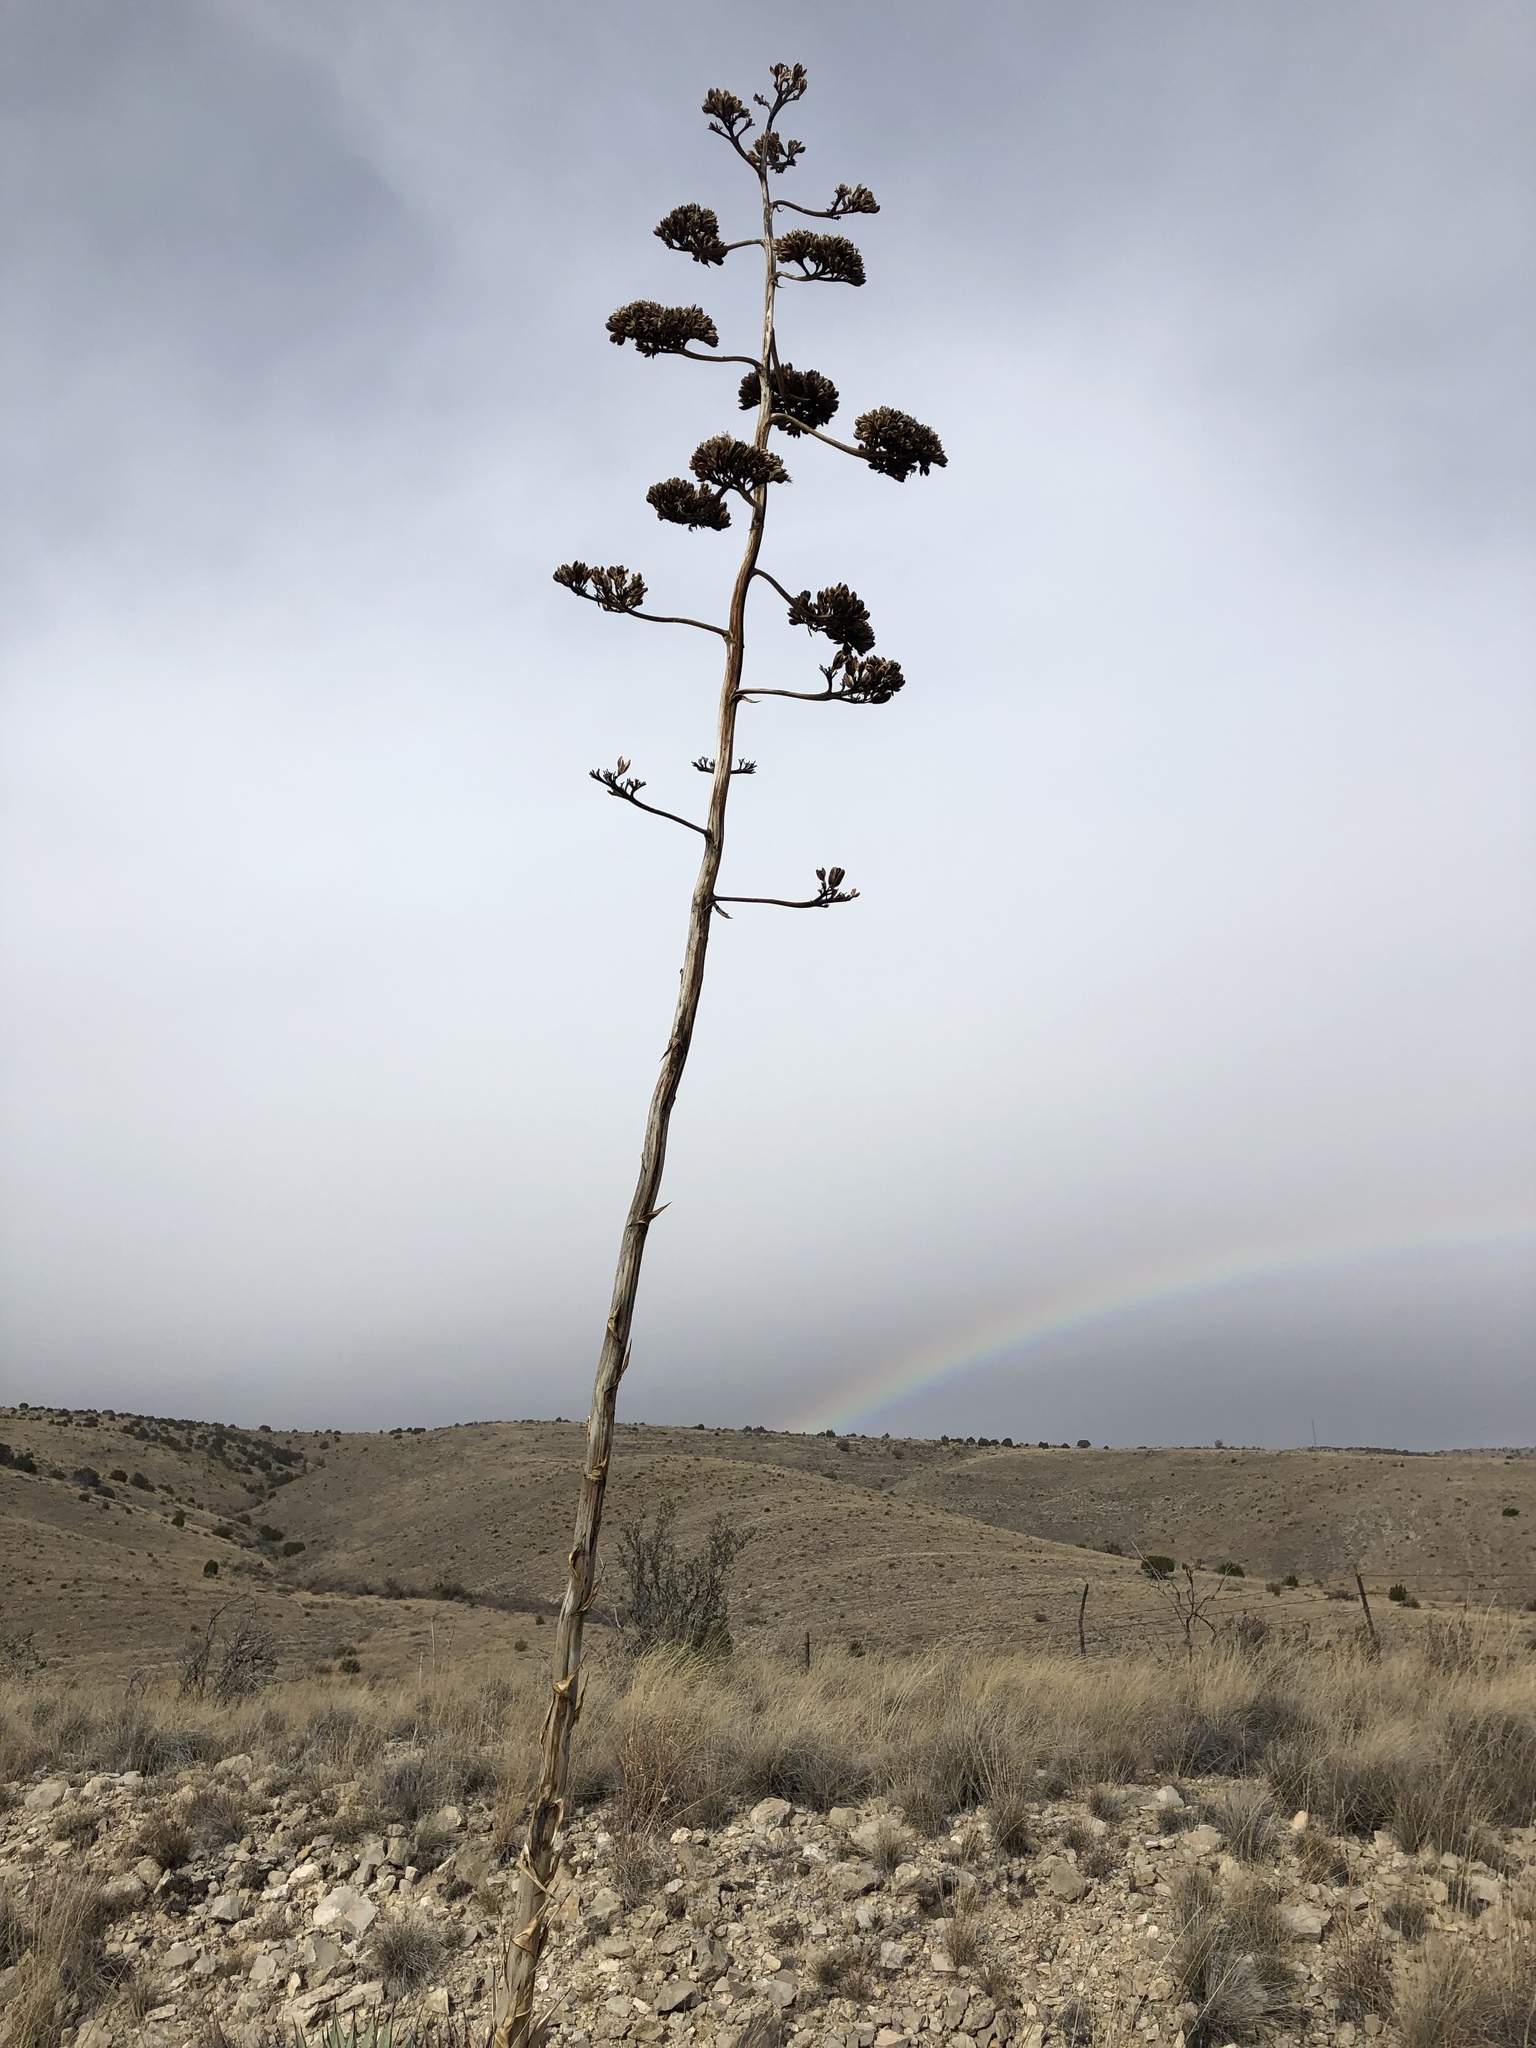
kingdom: Plantae
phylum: Tracheophyta
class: Liliopsida
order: Asparagales
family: Asparagaceae
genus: Agave
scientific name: Agave parryi
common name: Parry's agave
